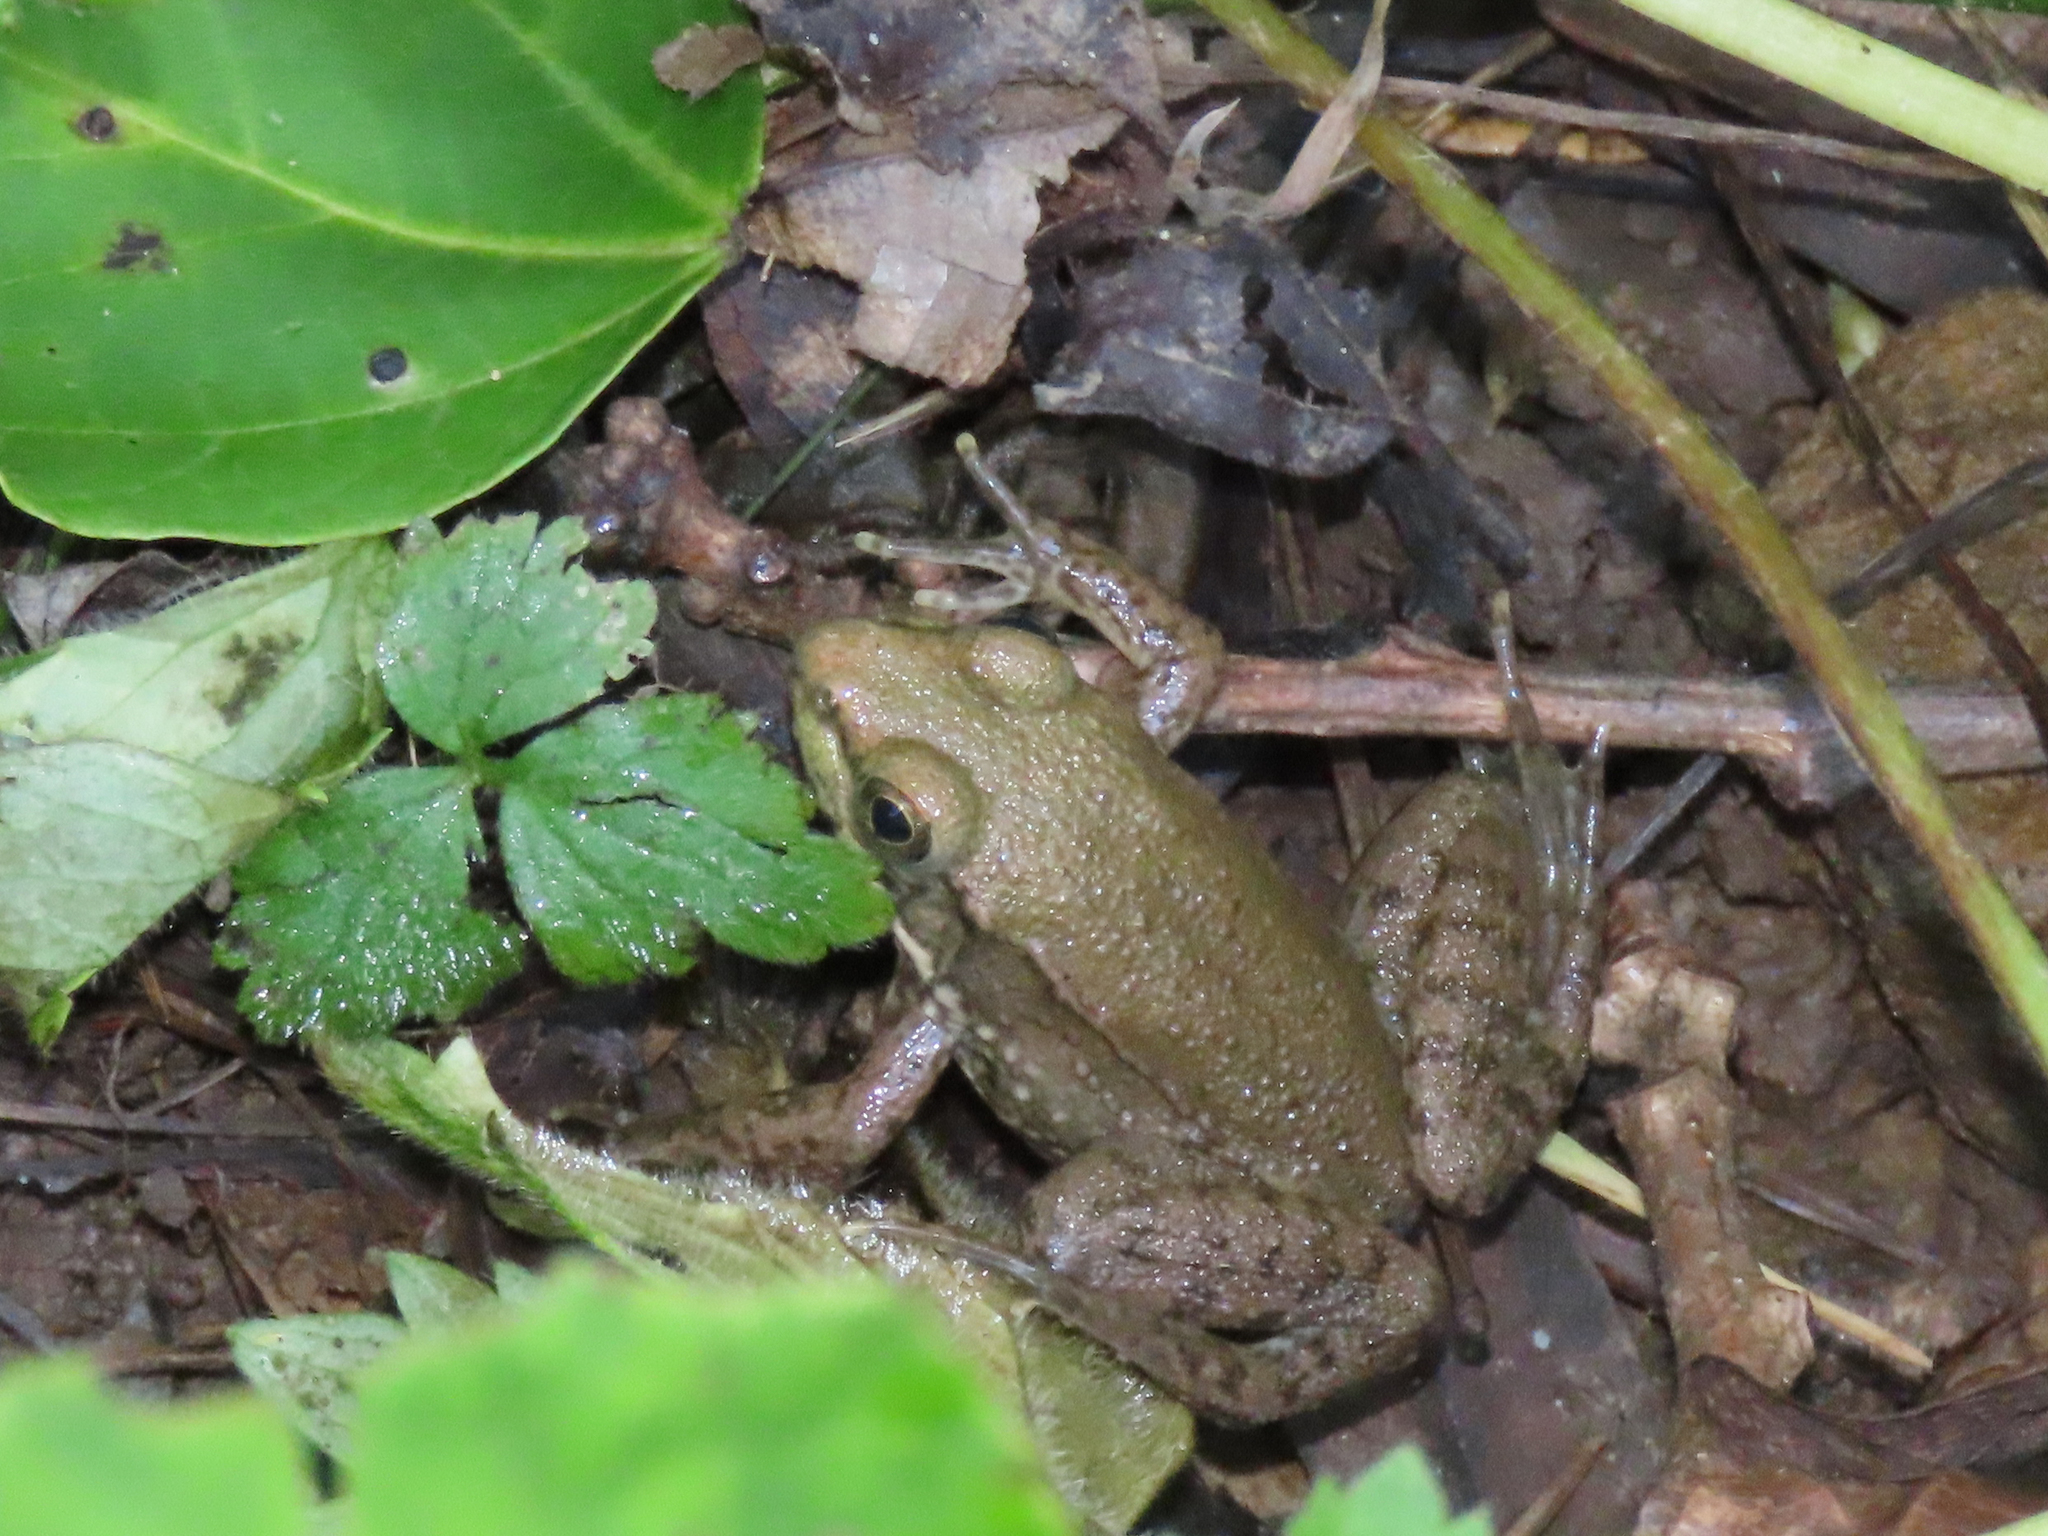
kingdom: Animalia
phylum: Chordata
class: Amphibia
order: Anura
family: Ranidae
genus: Lithobates
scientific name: Lithobates clamitans
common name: Green frog
